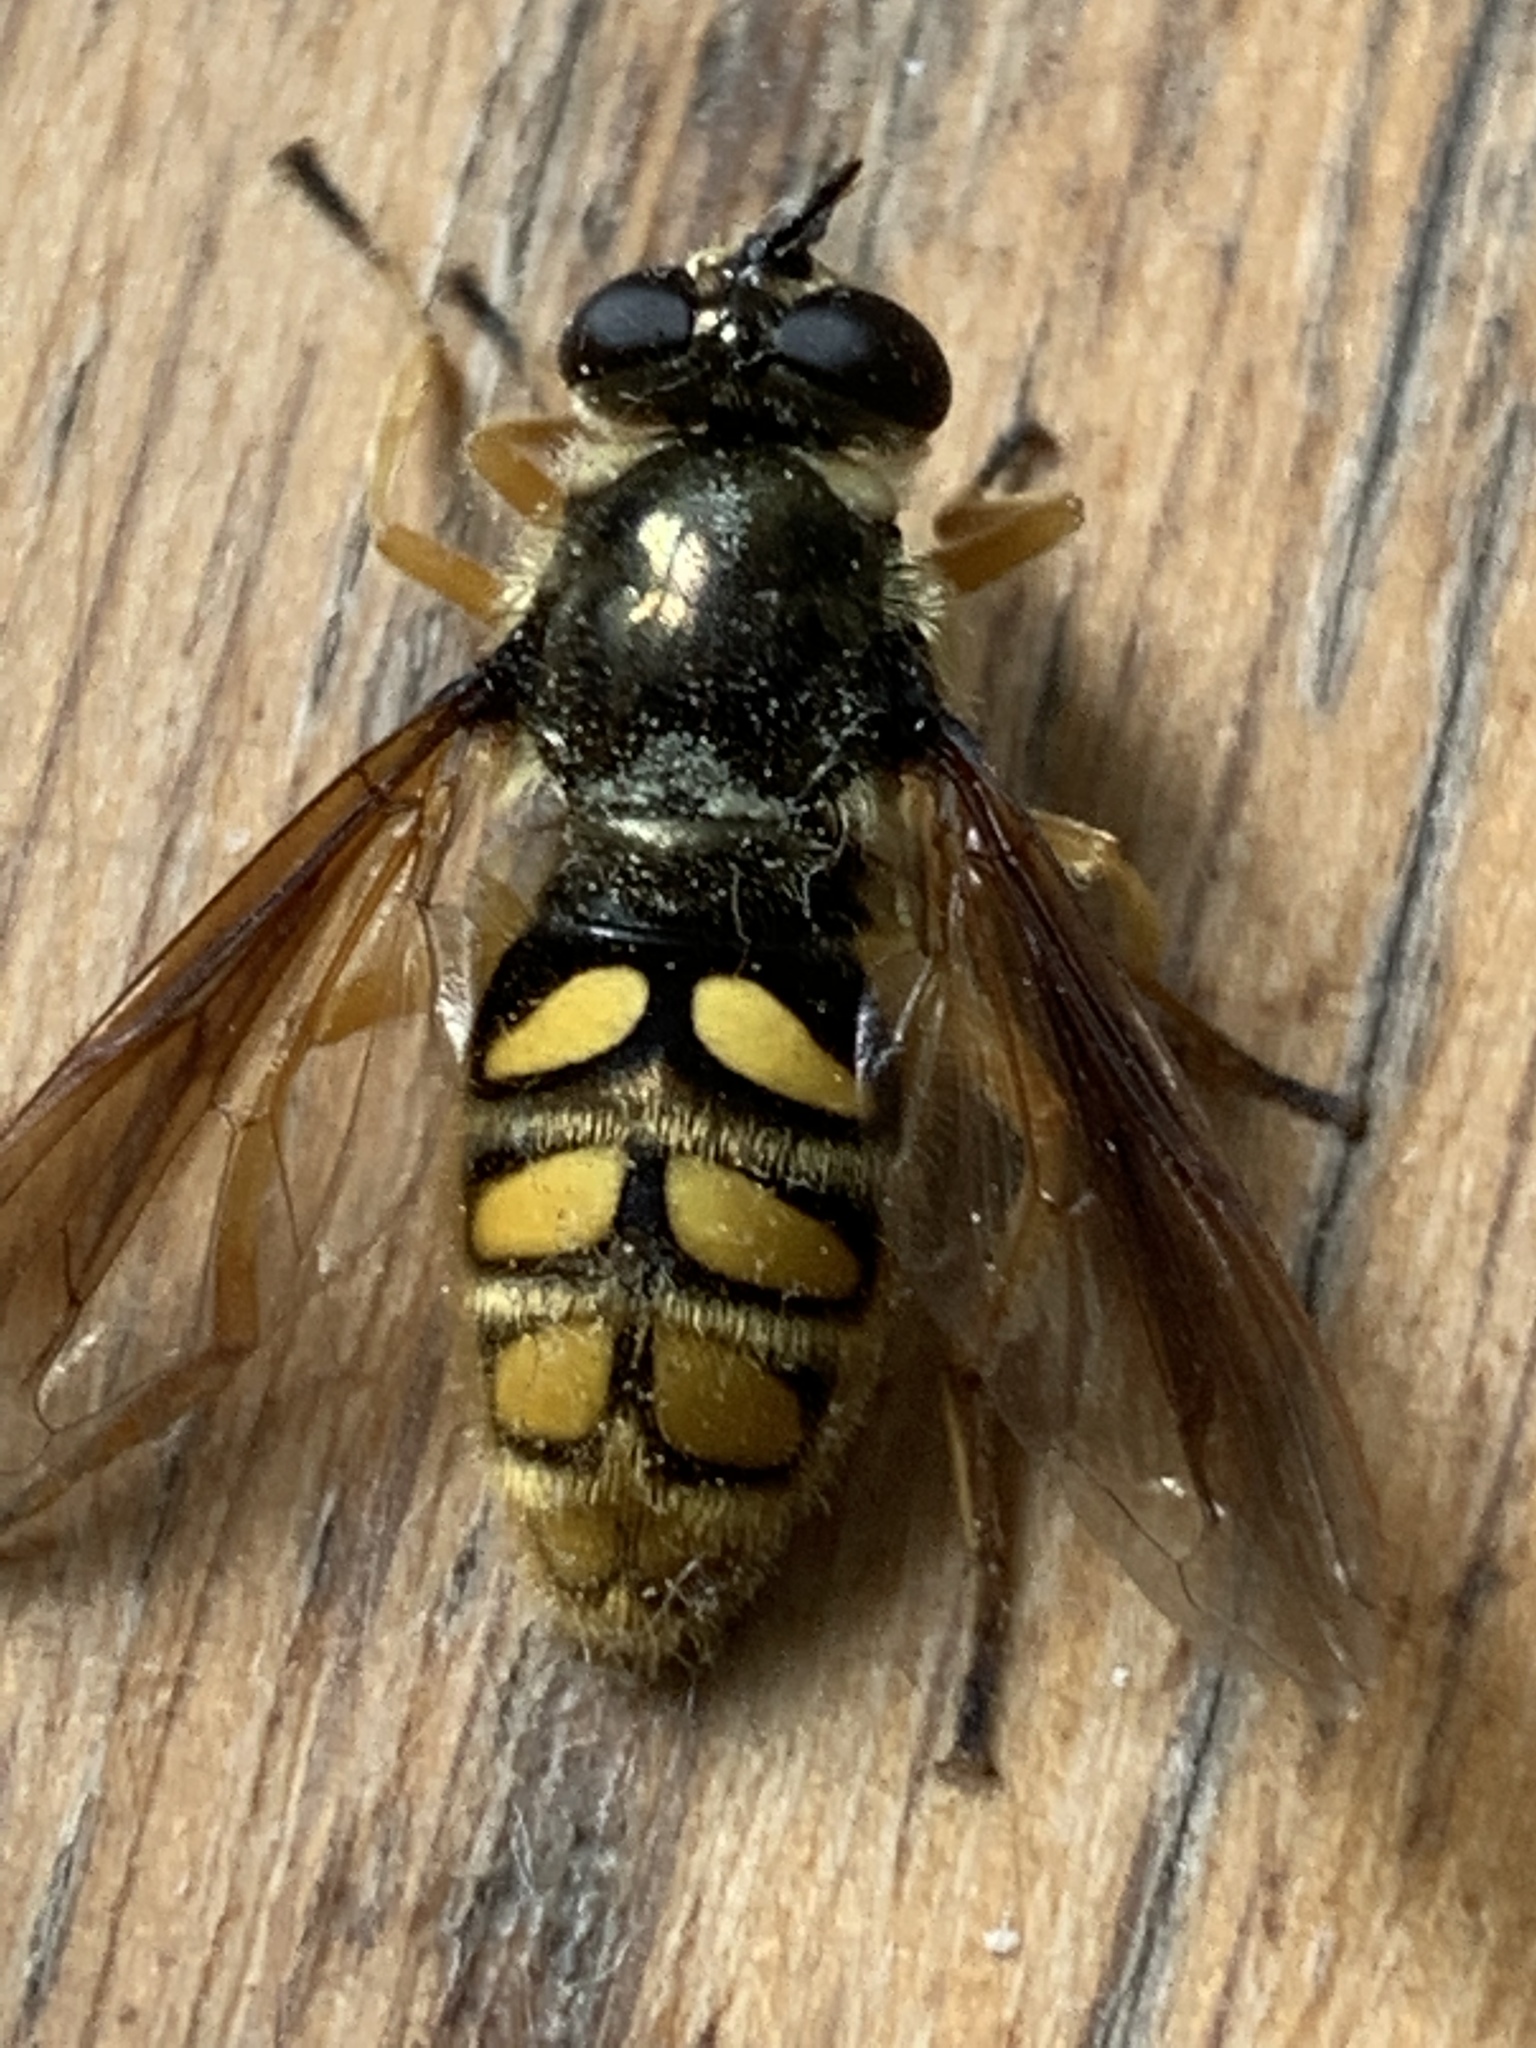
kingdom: Animalia
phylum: Arthropoda
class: Insecta
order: Diptera
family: Syrphidae
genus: Somula
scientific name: Somula decora
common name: Spotted wood fly
